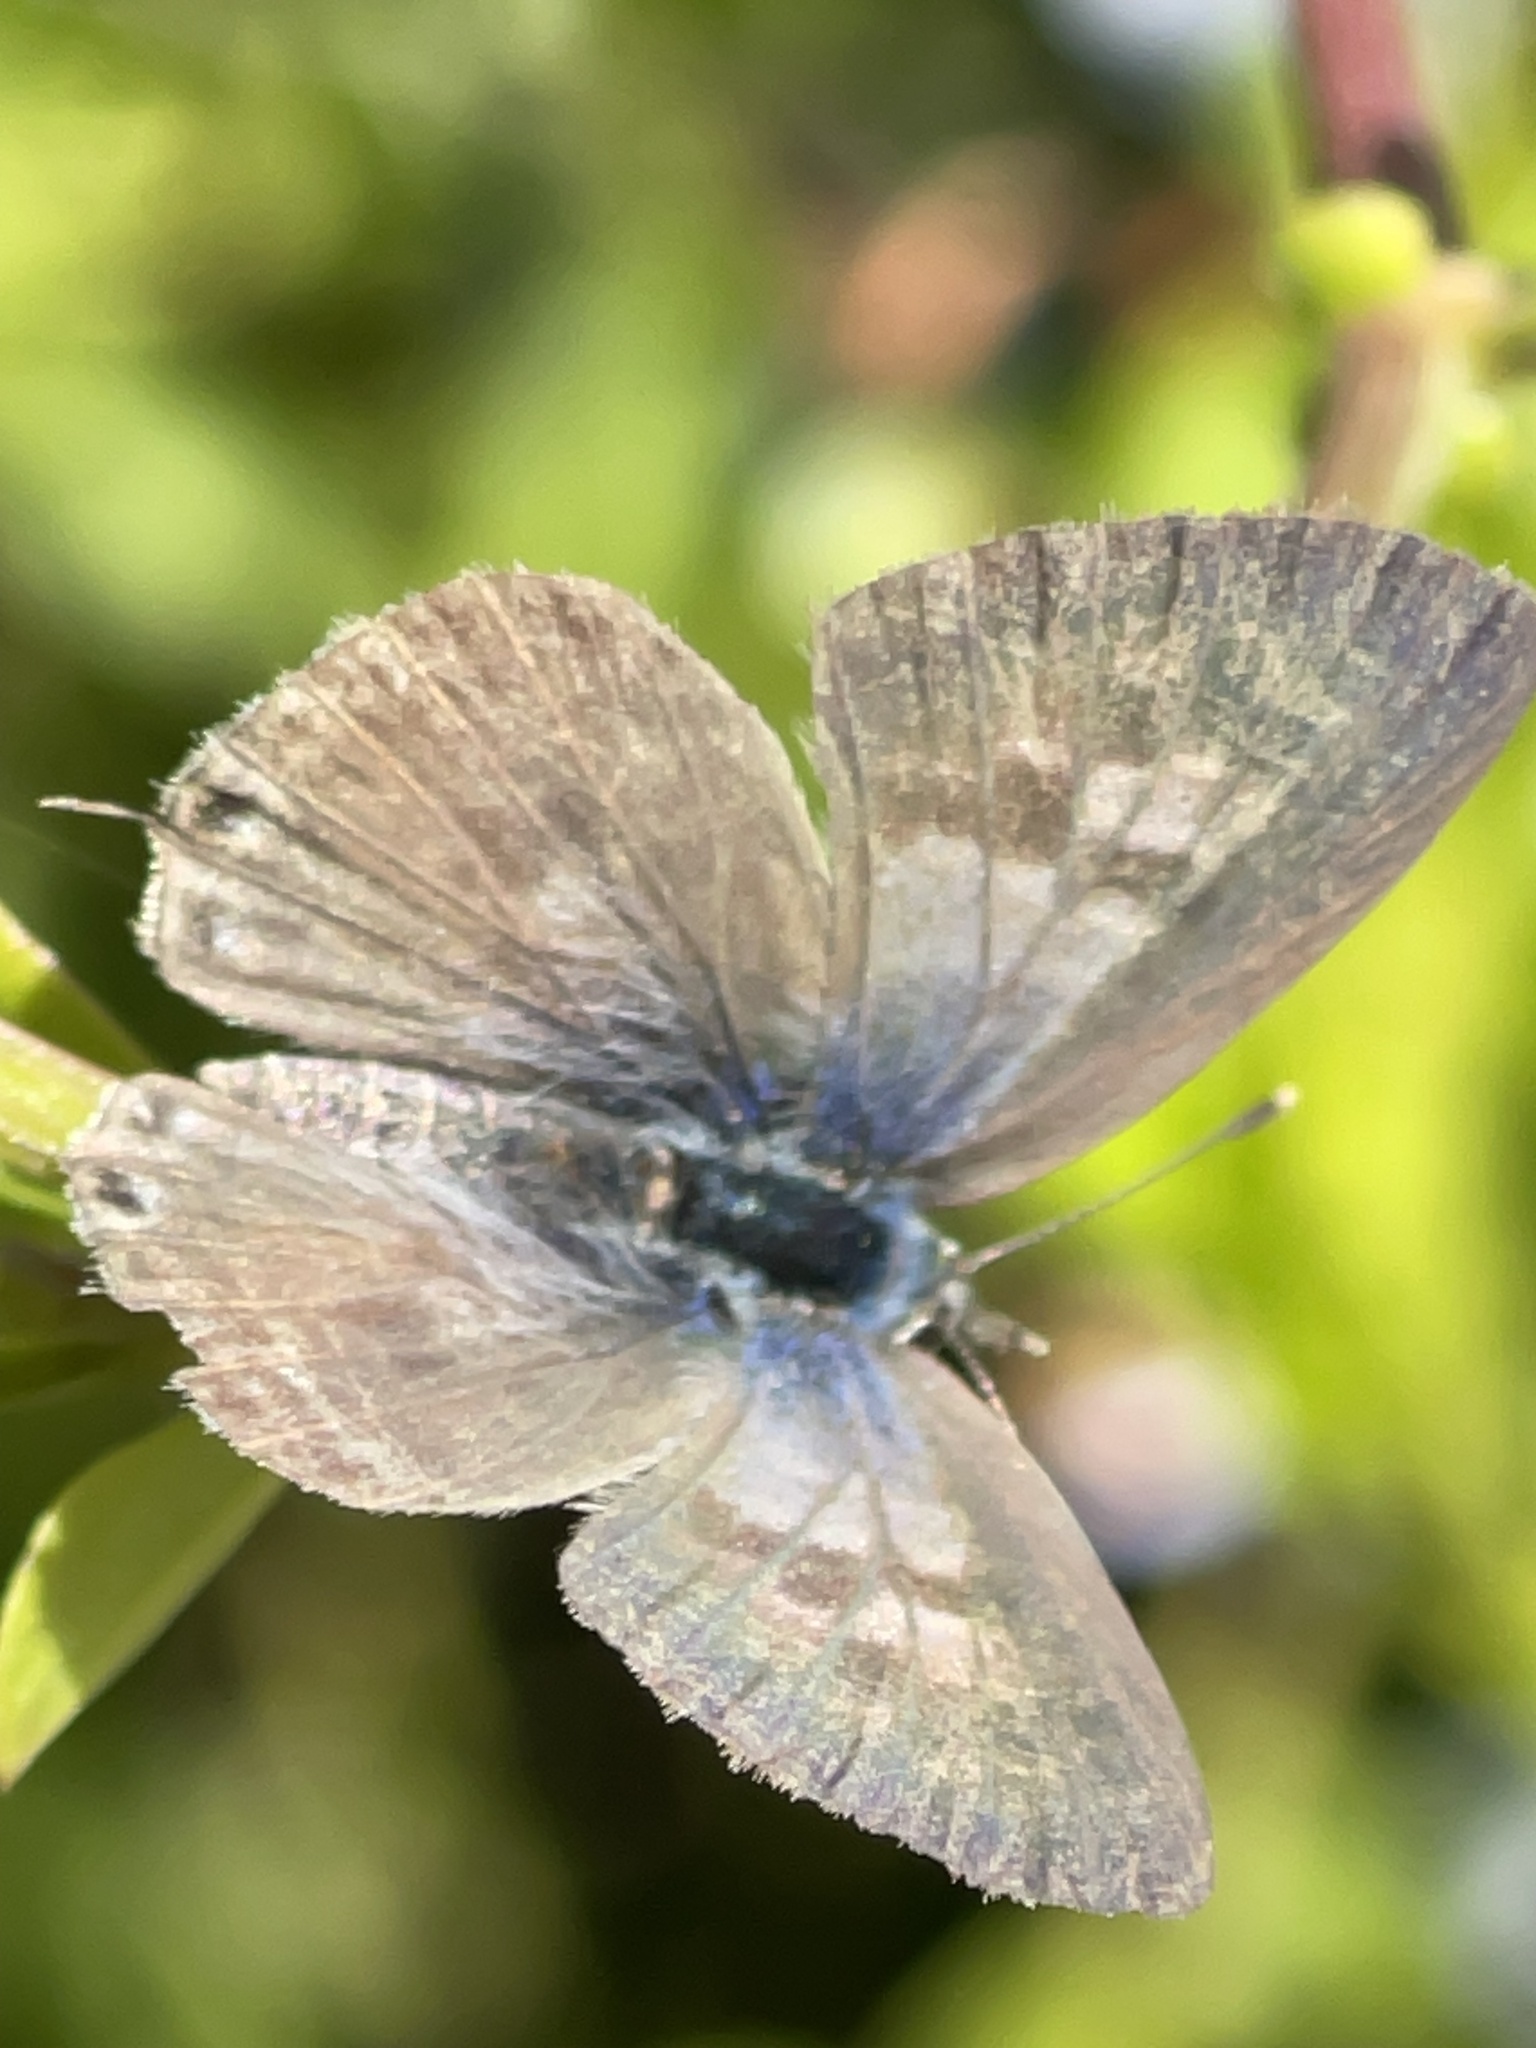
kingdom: Animalia
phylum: Arthropoda
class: Insecta
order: Lepidoptera
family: Lycaenidae
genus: Leptotes
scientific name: Leptotes pirithous
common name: Lang's short-tailed blue
